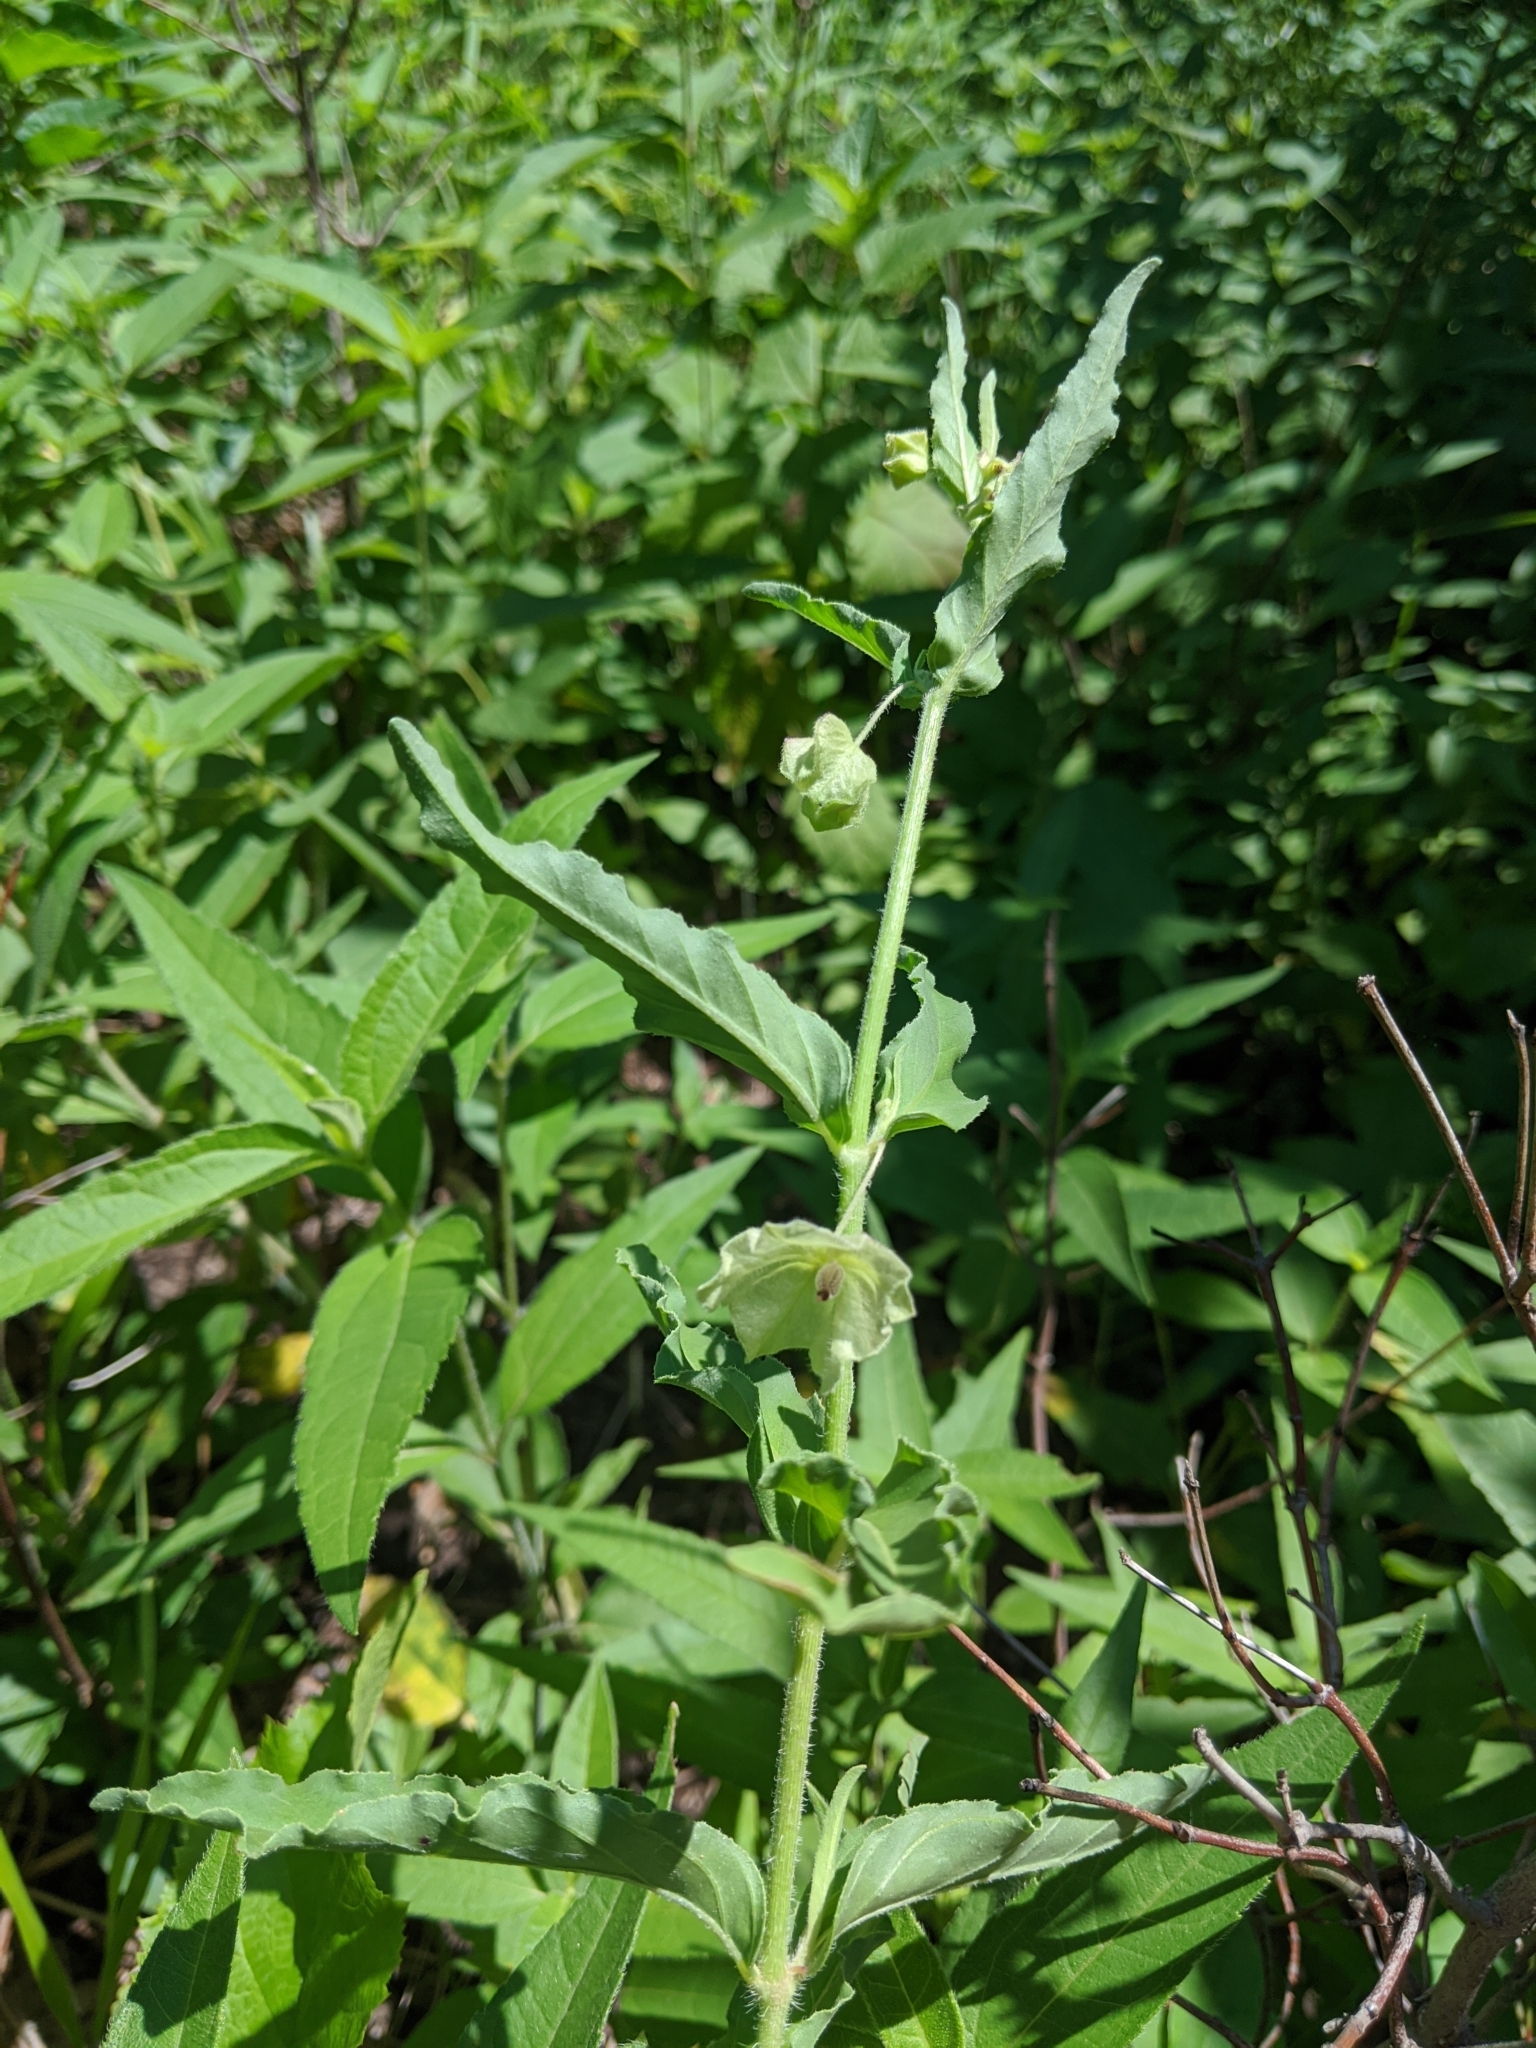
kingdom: Plantae
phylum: Tracheophyta
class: Magnoliopsida
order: Caryophyllales
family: Nyctaginaceae
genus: Mirabilis
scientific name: Mirabilis albida
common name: Hairy four-o'clock
